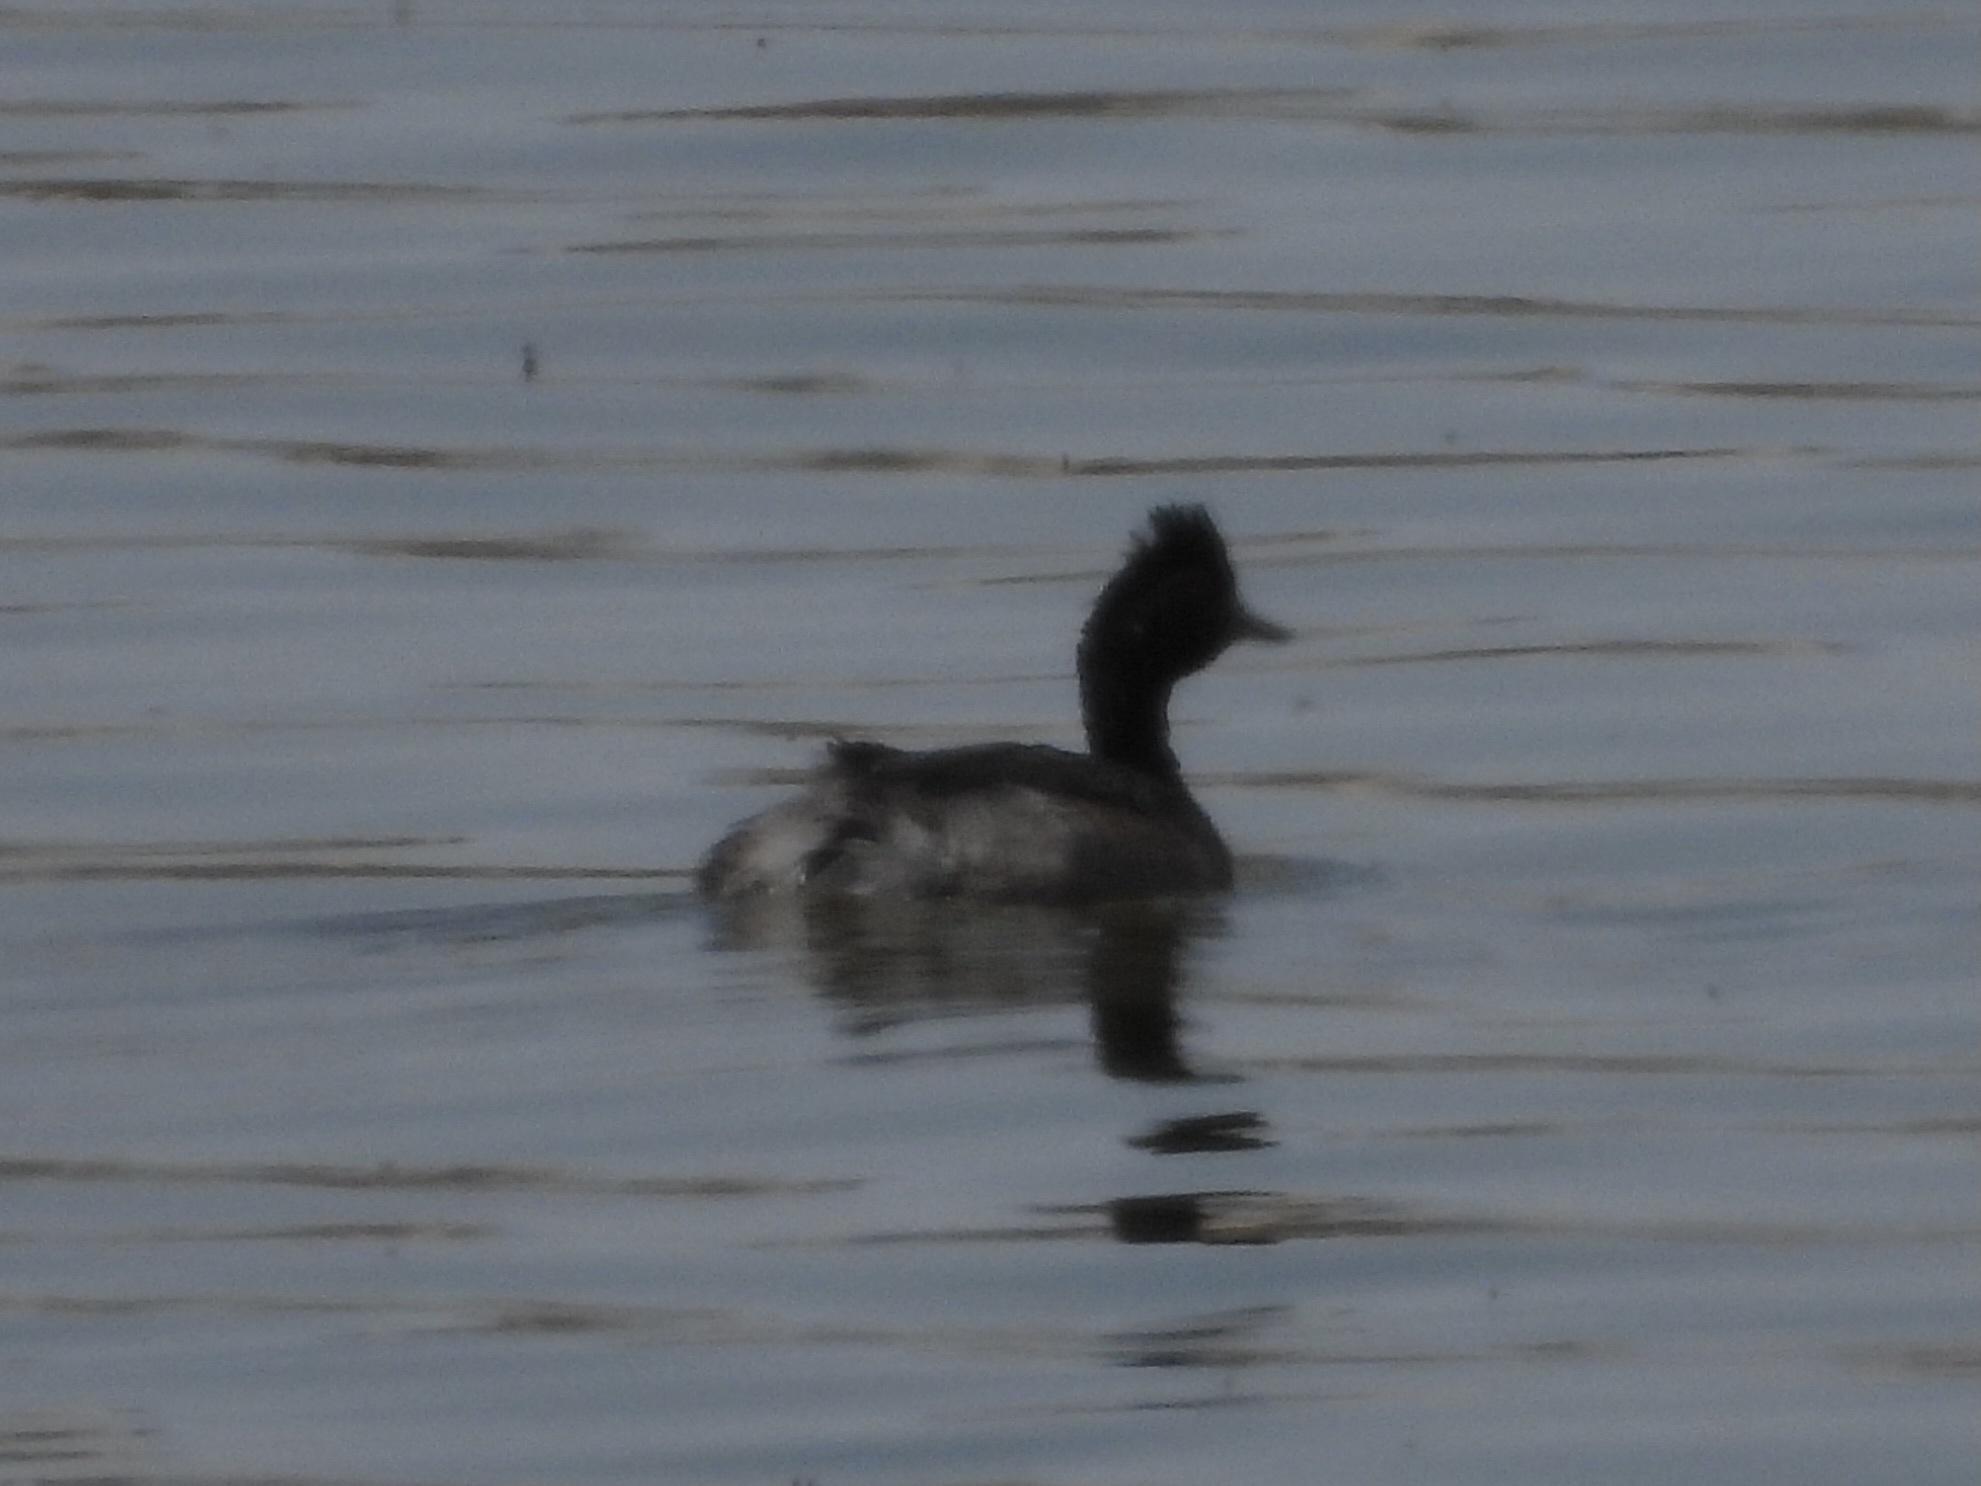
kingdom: Animalia
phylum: Chordata
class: Aves
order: Podicipediformes
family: Podicipedidae
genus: Podiceps
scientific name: Podiceps nigricollis
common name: Black-necked grebe
